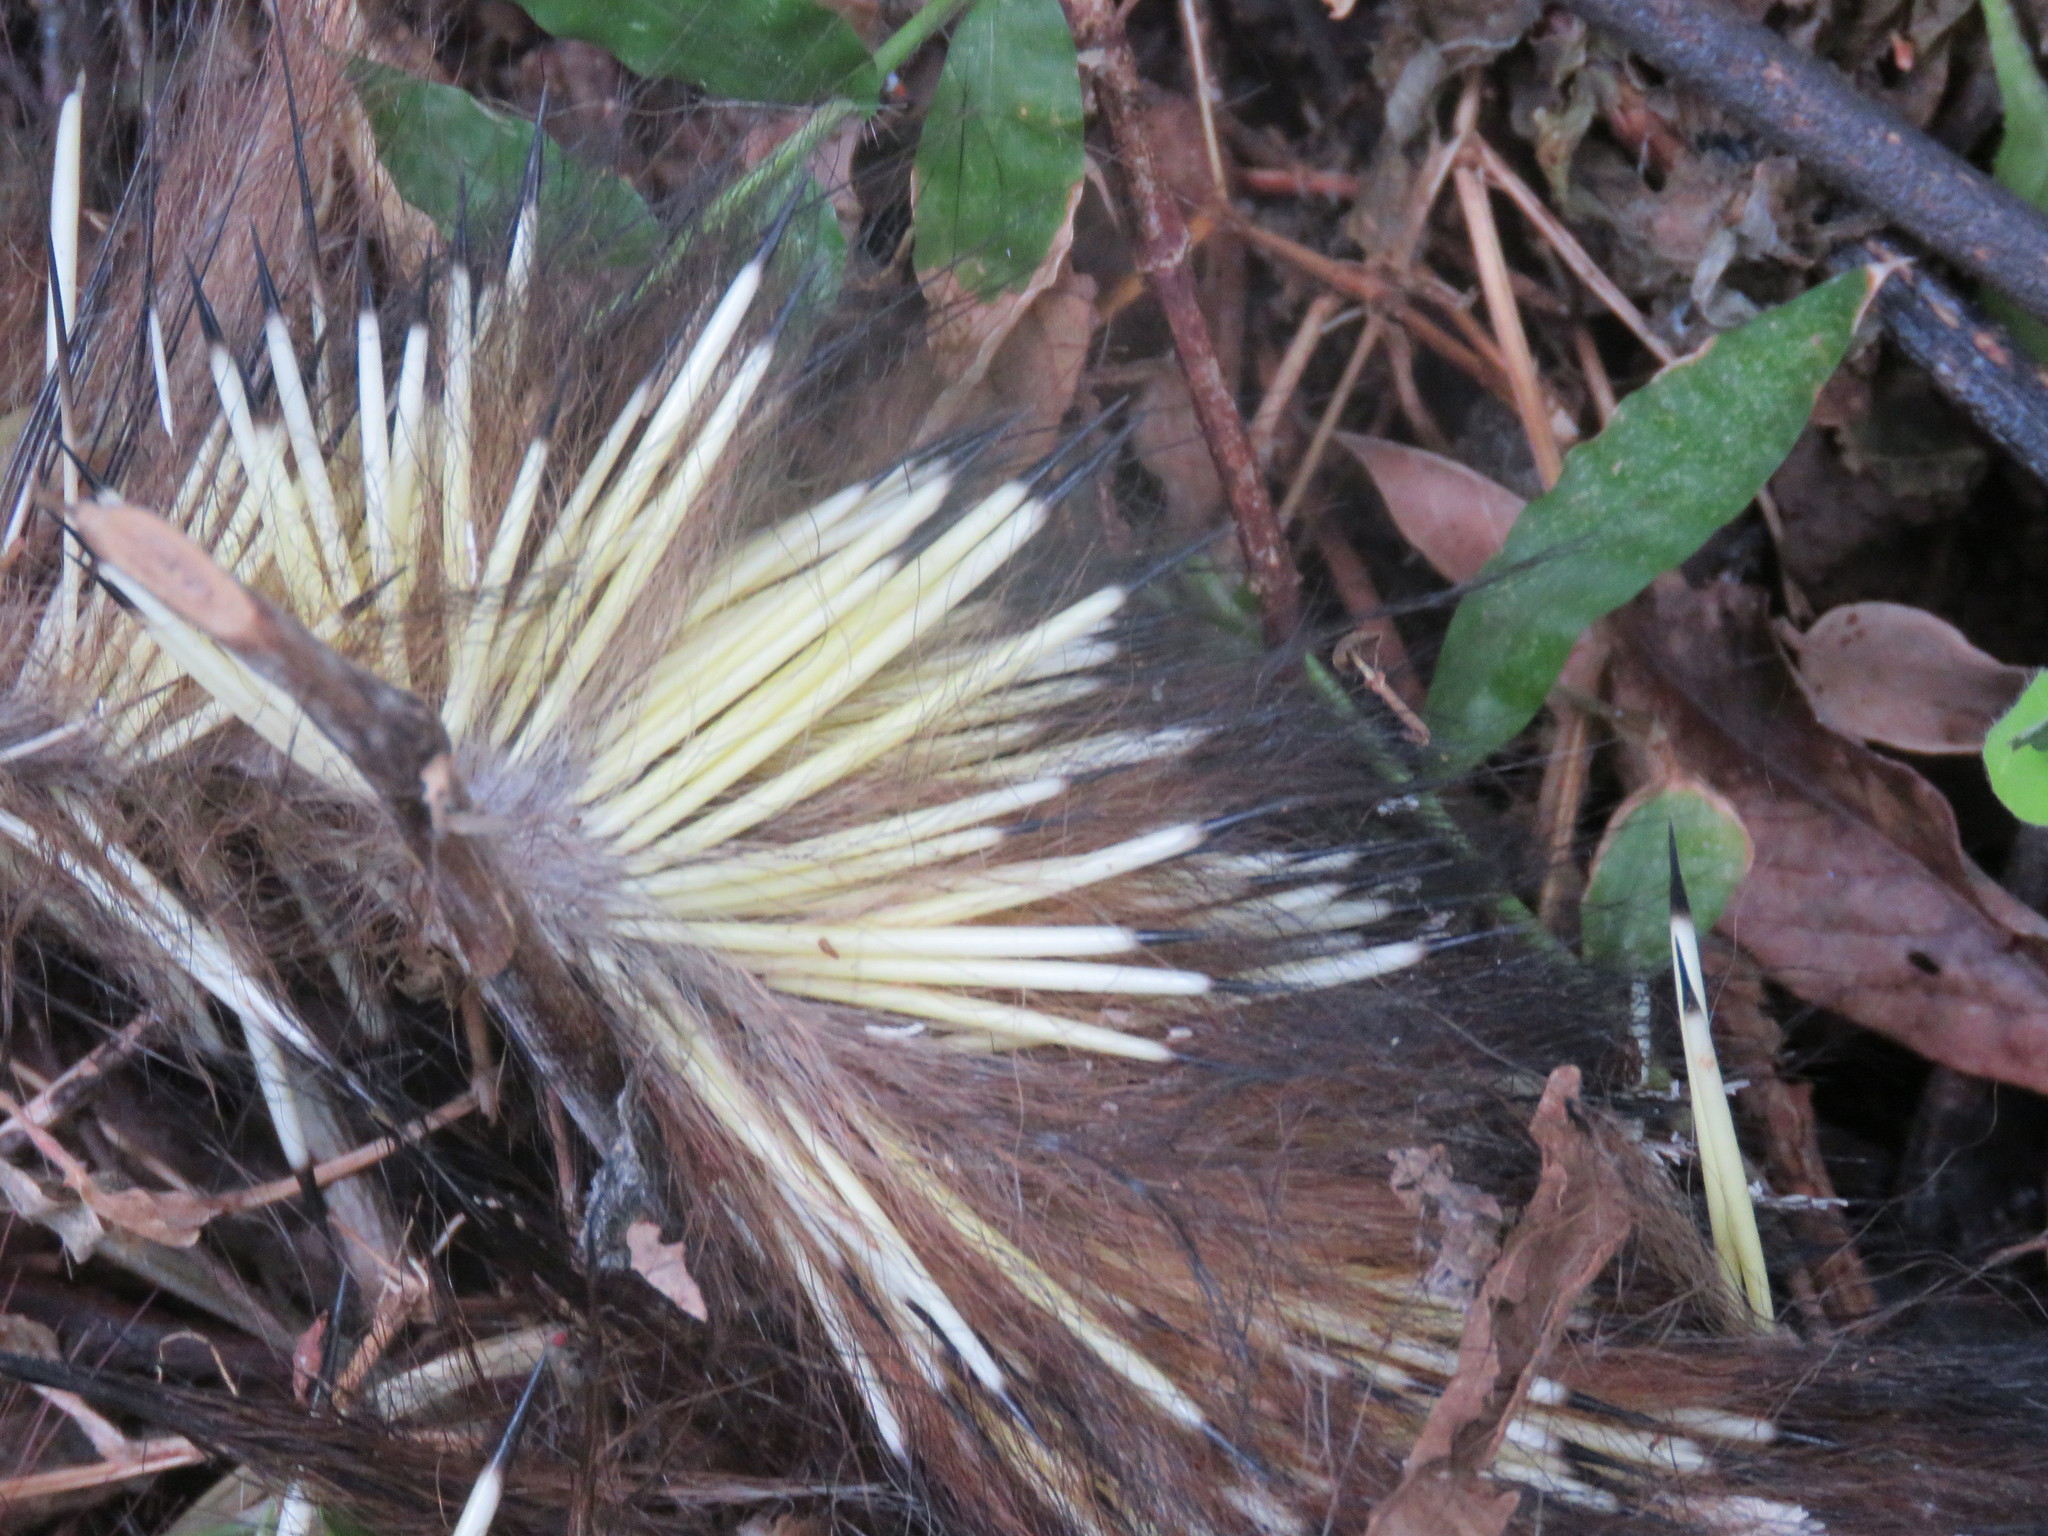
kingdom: Animalia
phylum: Chordata
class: Mammalia
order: Rodentia
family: Erethizontidae
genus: Sphiggurus
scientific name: Sphiggurus mexicanus
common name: Mexican hairy dwarf porcupine
